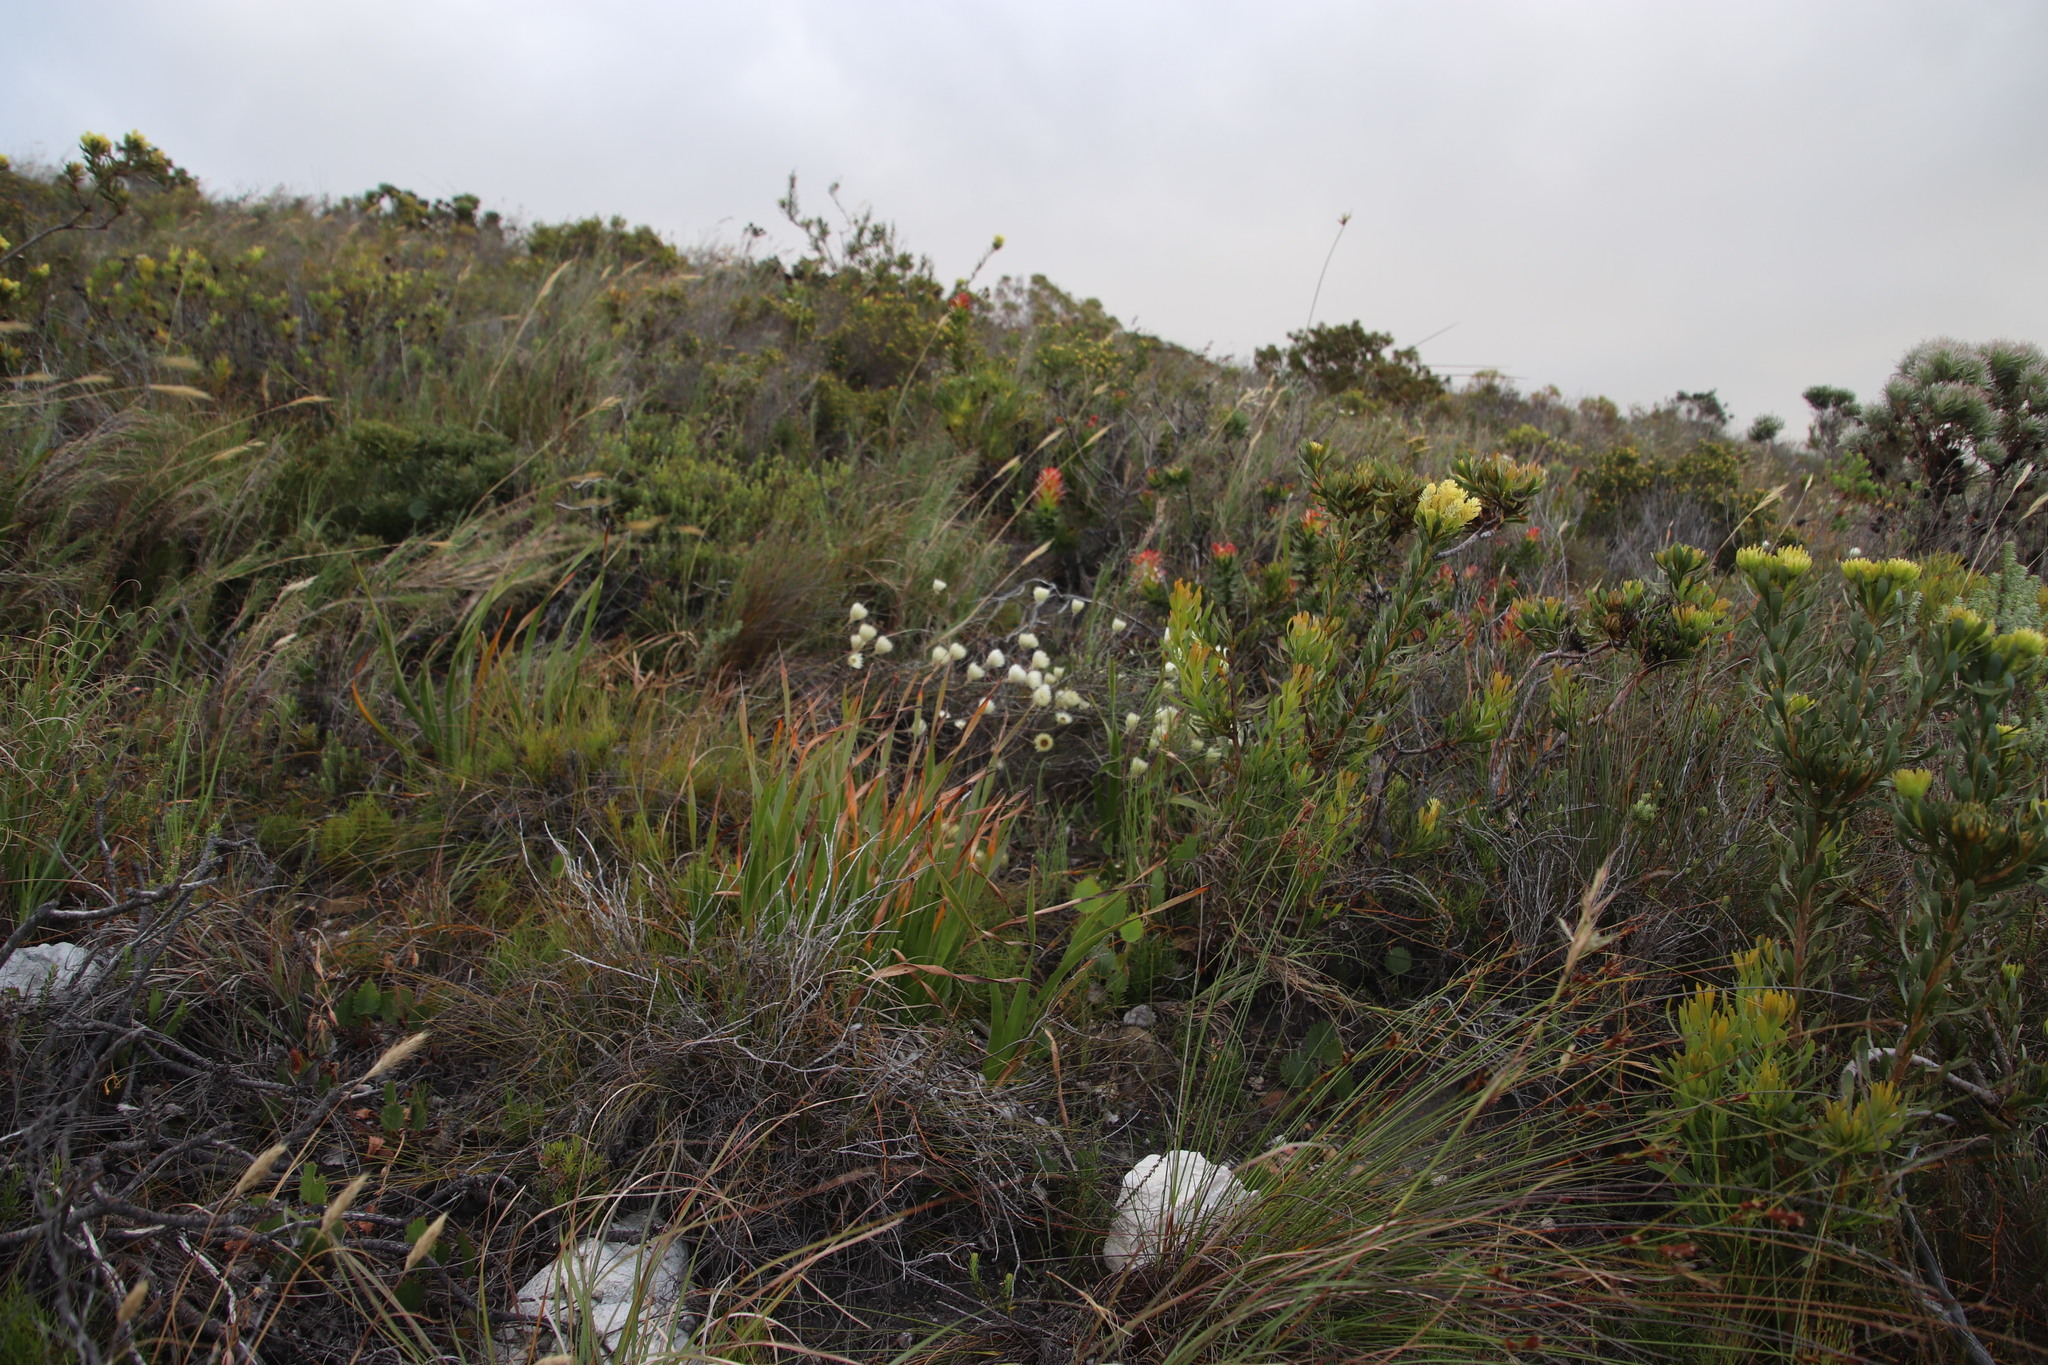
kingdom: Plantae
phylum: Tracheophyta
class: Magnoliopsida
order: Asterales
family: Asteraceae
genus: Edmondia
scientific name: Edmondia sesamoides
